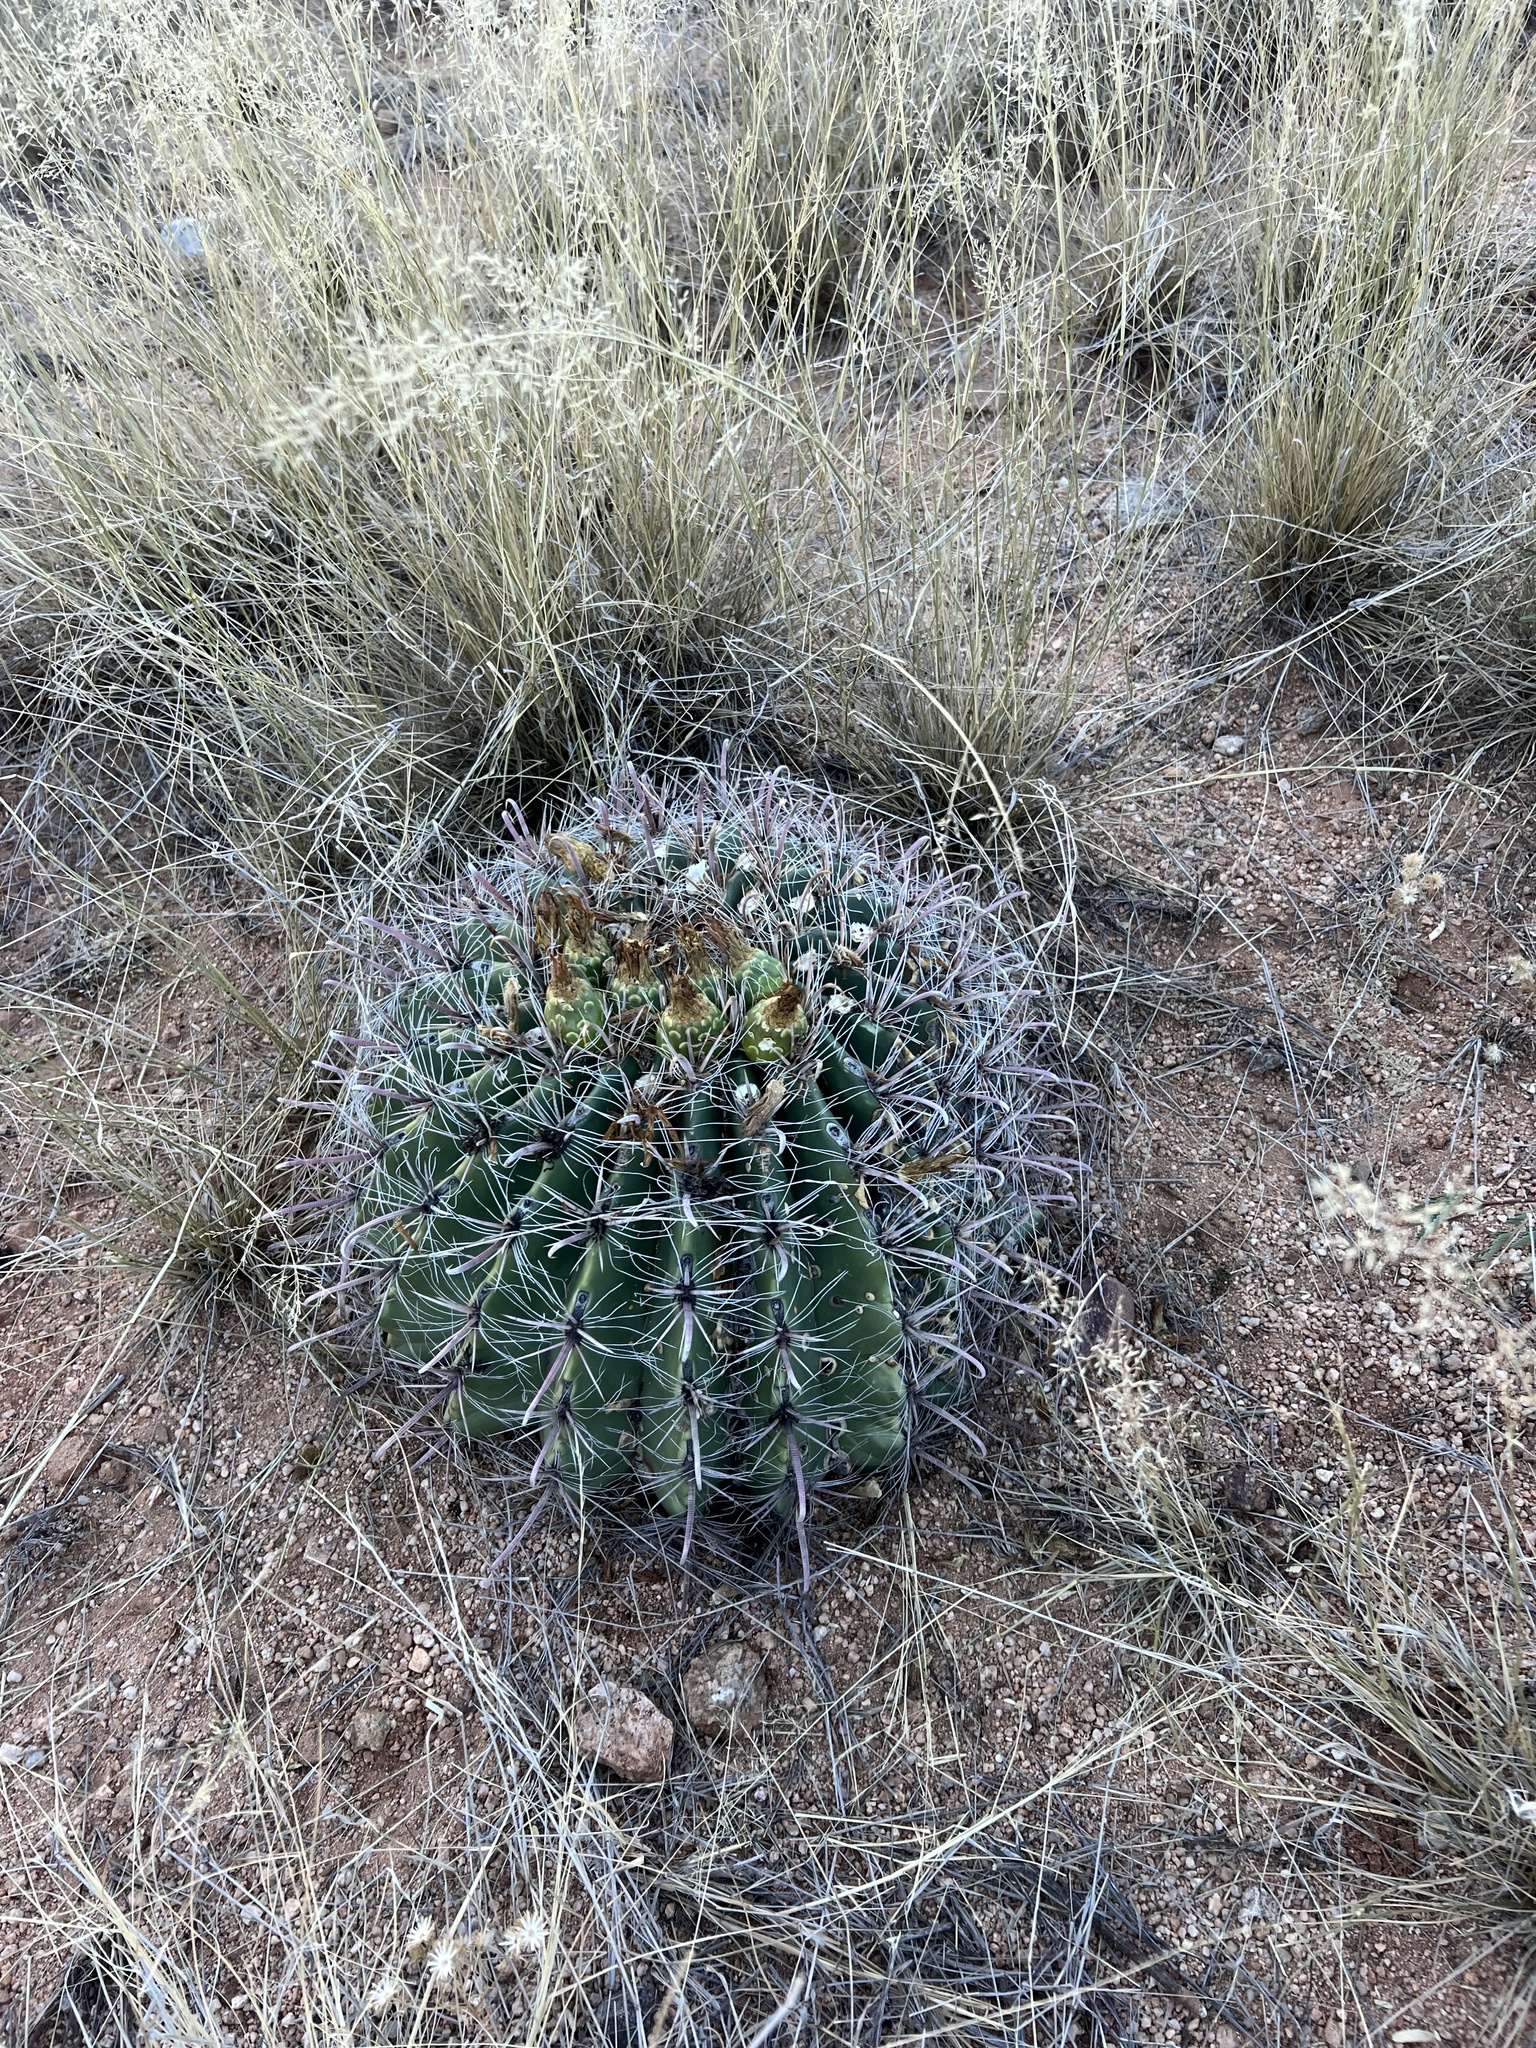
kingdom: Plantae
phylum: Tracheophyta
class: Magnoliopsida
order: Caryophyllales
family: Cactaceae
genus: Ferocactus
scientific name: Ferocactus wislizeni
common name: Candy barrel cactus
